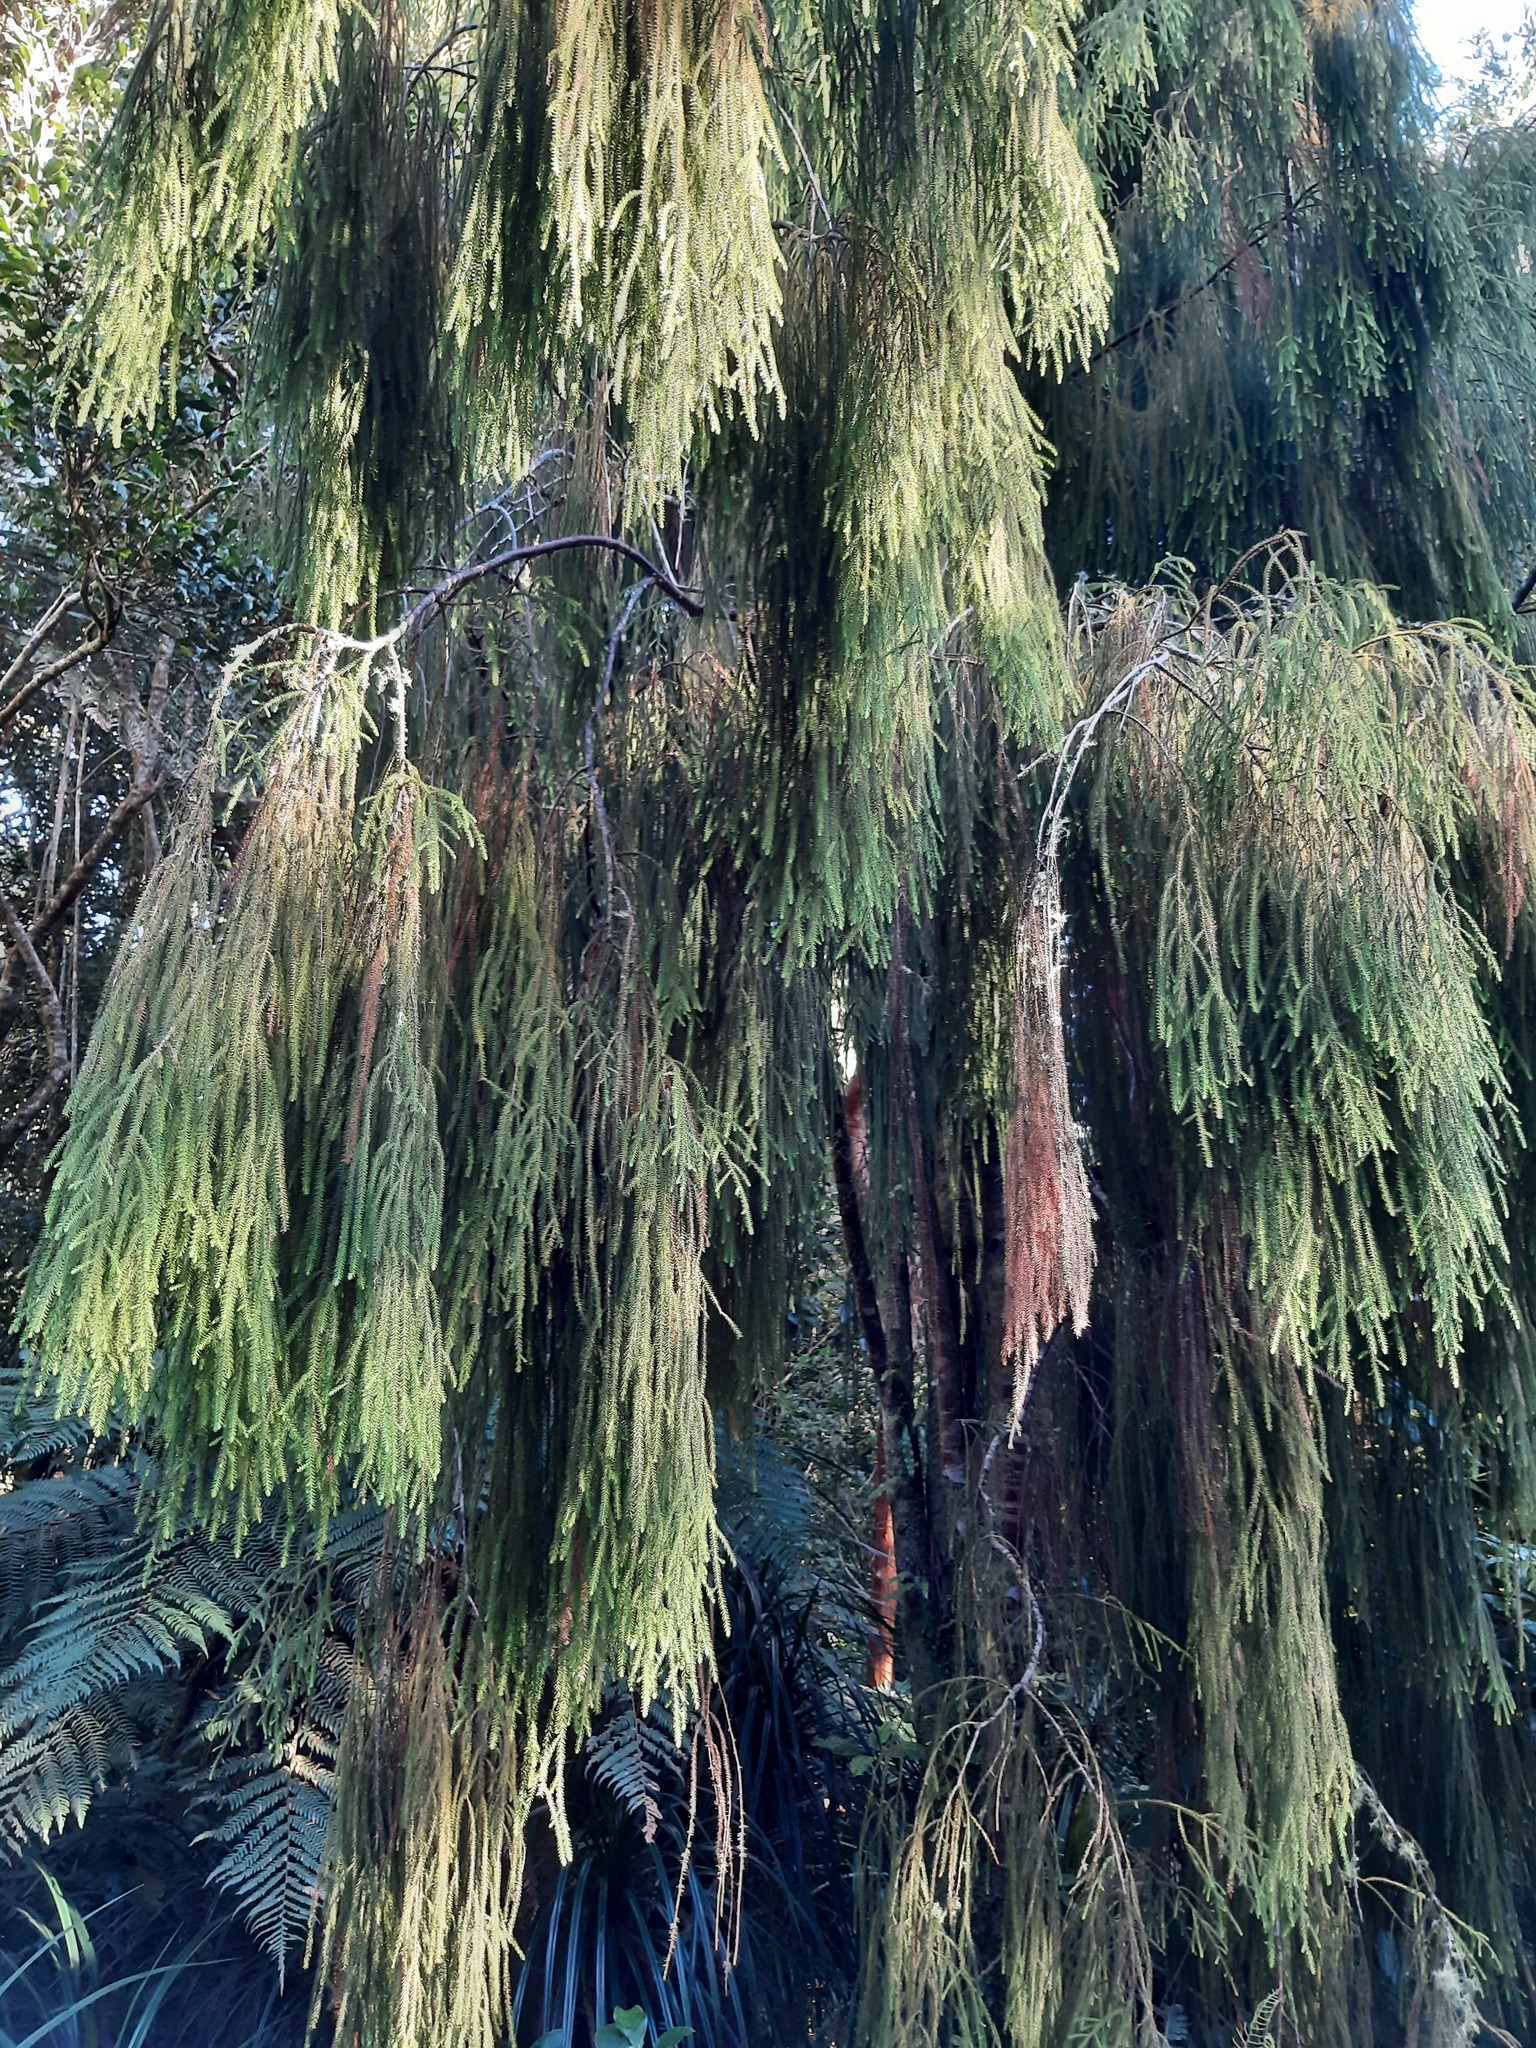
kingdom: Plantae
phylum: Tracheophyta
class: Pinopsida
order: Pinales
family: Podocarpaceae
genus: Dacrydium
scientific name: Dacrydium cupressinum
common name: Red pine
